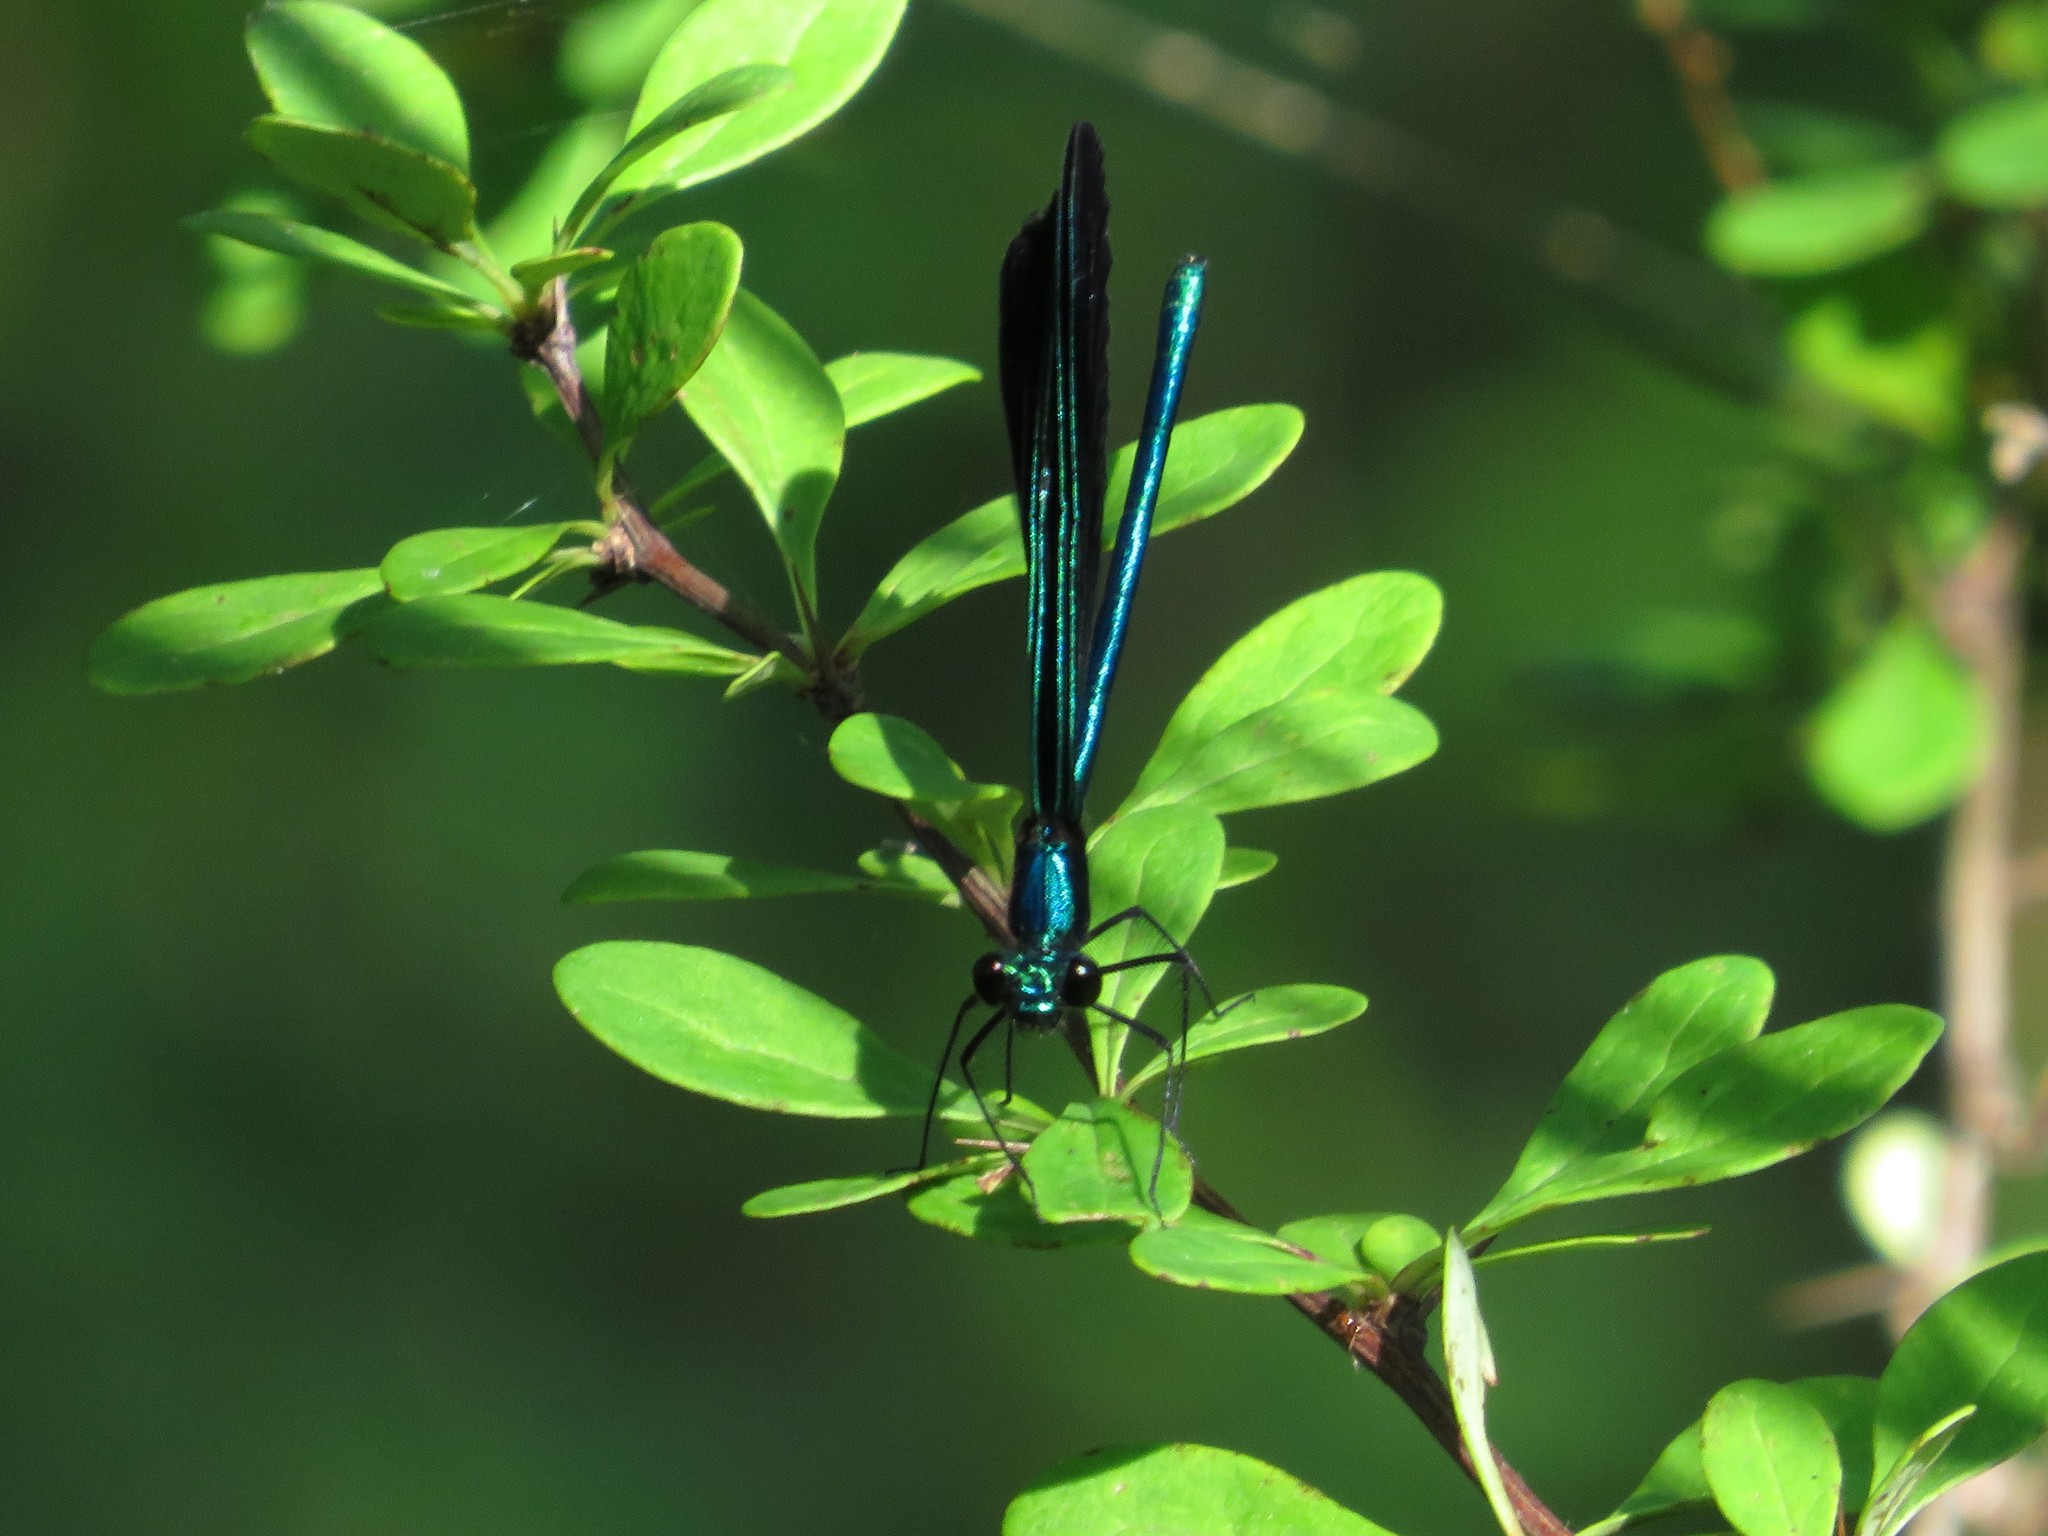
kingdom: Animalia
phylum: Arthropoda
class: Insecta
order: Odonata
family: Calopterygidae
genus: Calopteryx
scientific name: Calopteryx maculata
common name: Ebony jewelwing
